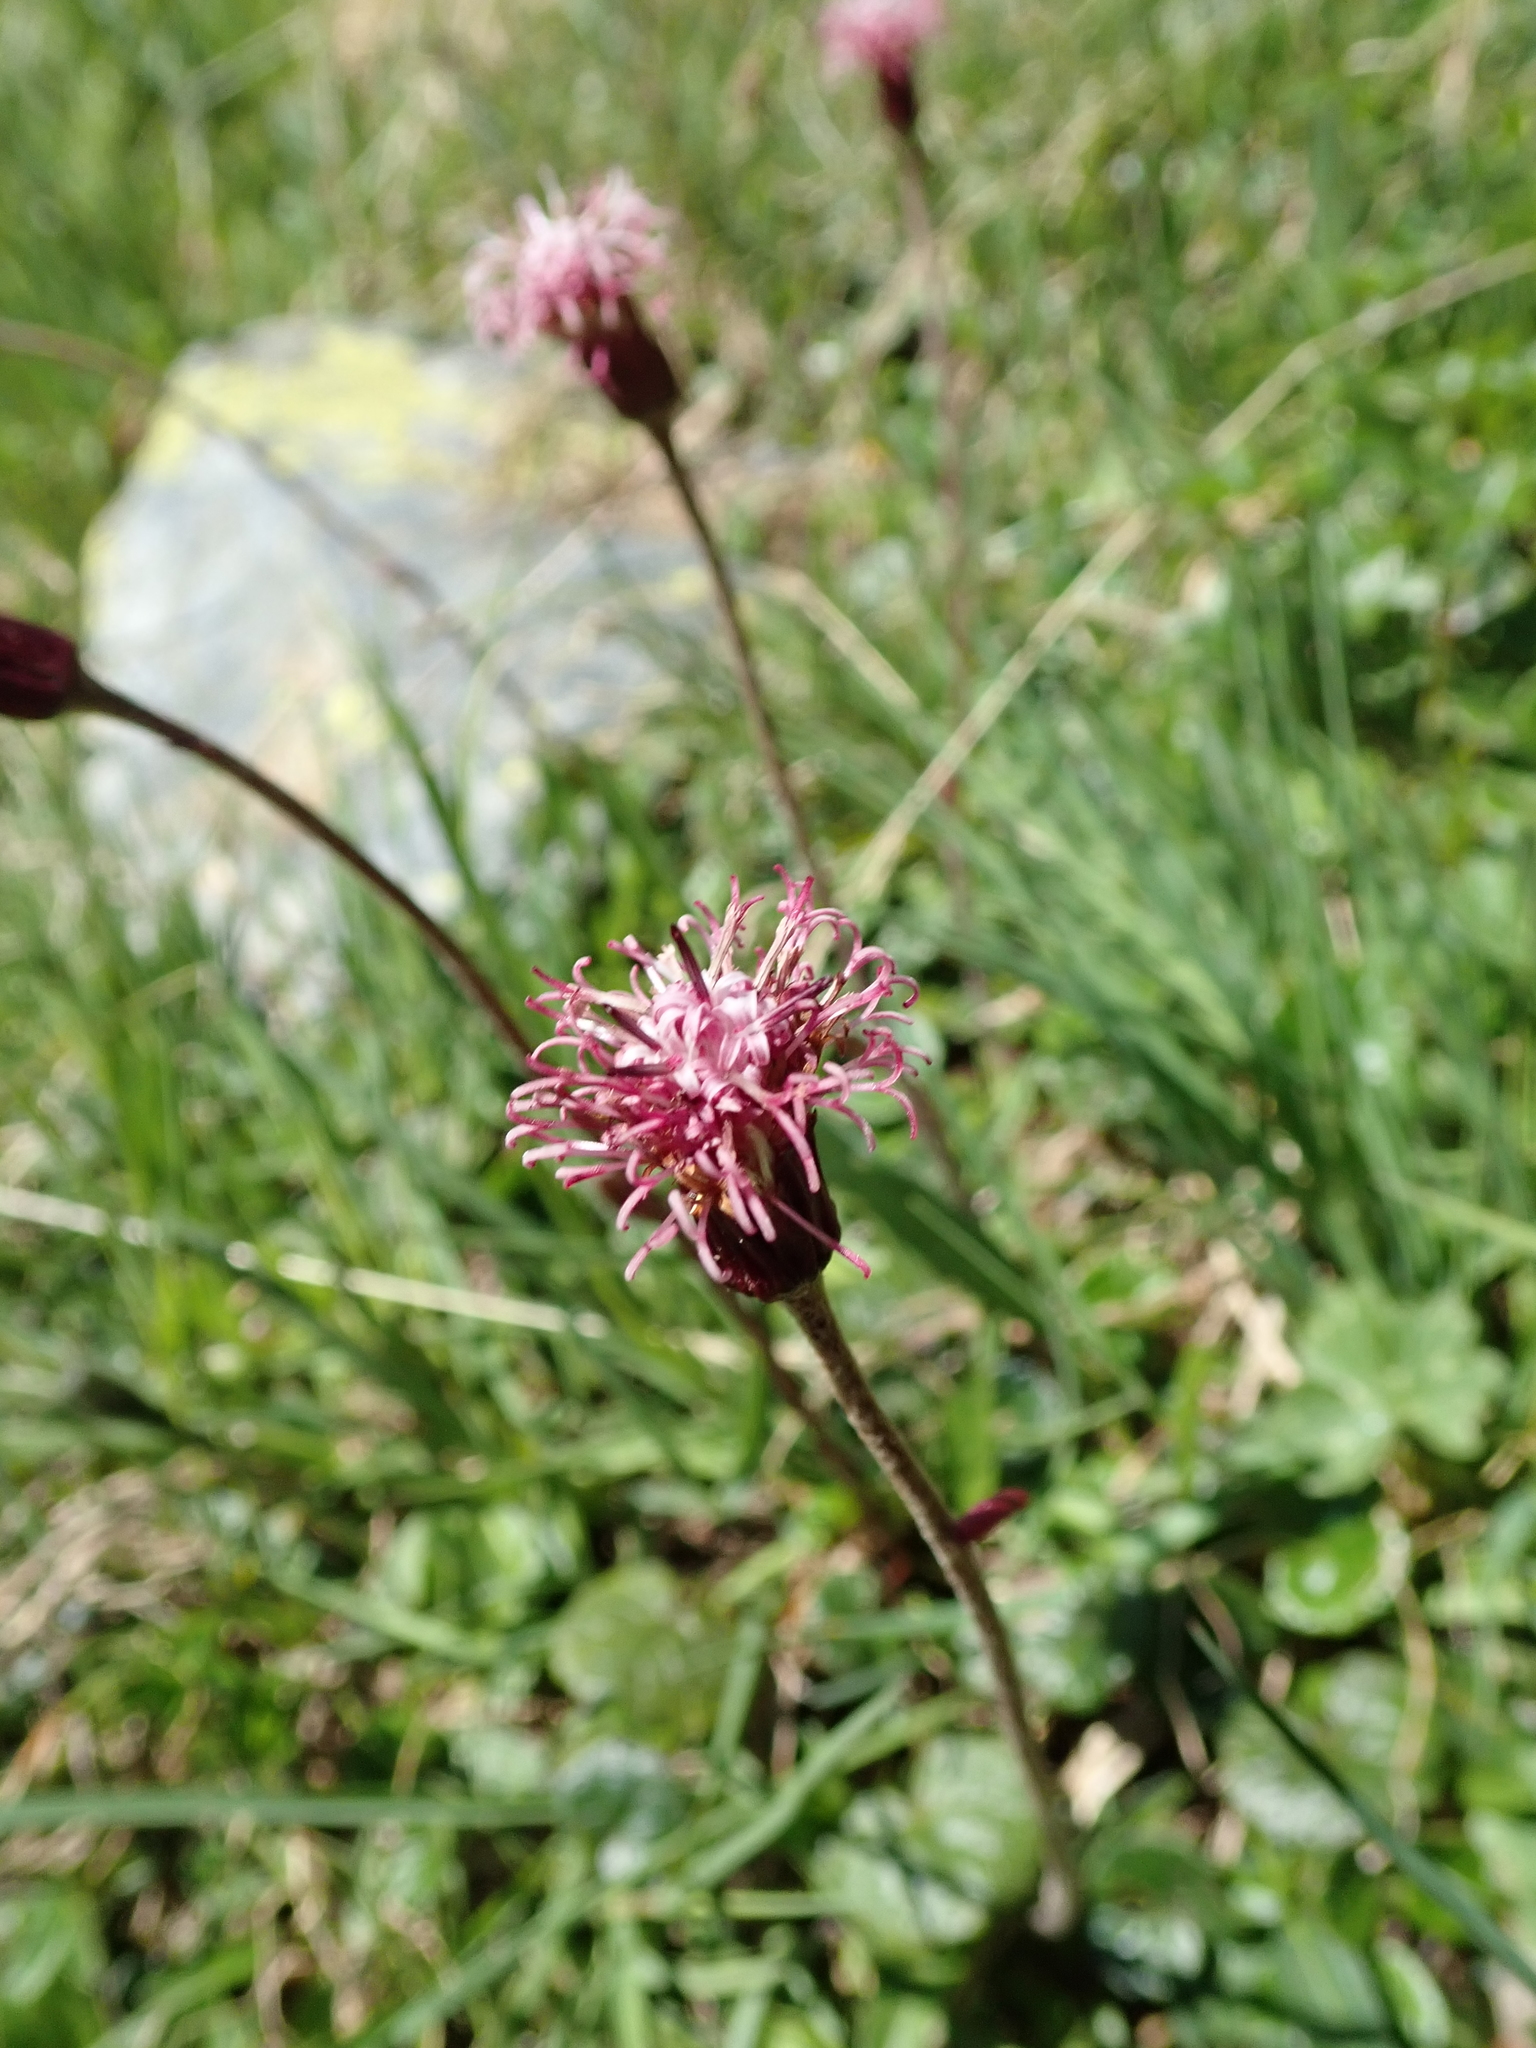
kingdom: Plantae
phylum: Tracheophyta
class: Magnoliopsida
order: Asterales
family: Asteraceae
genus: Homogyne
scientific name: Homogyne alpina
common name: Purple colt's-foot
